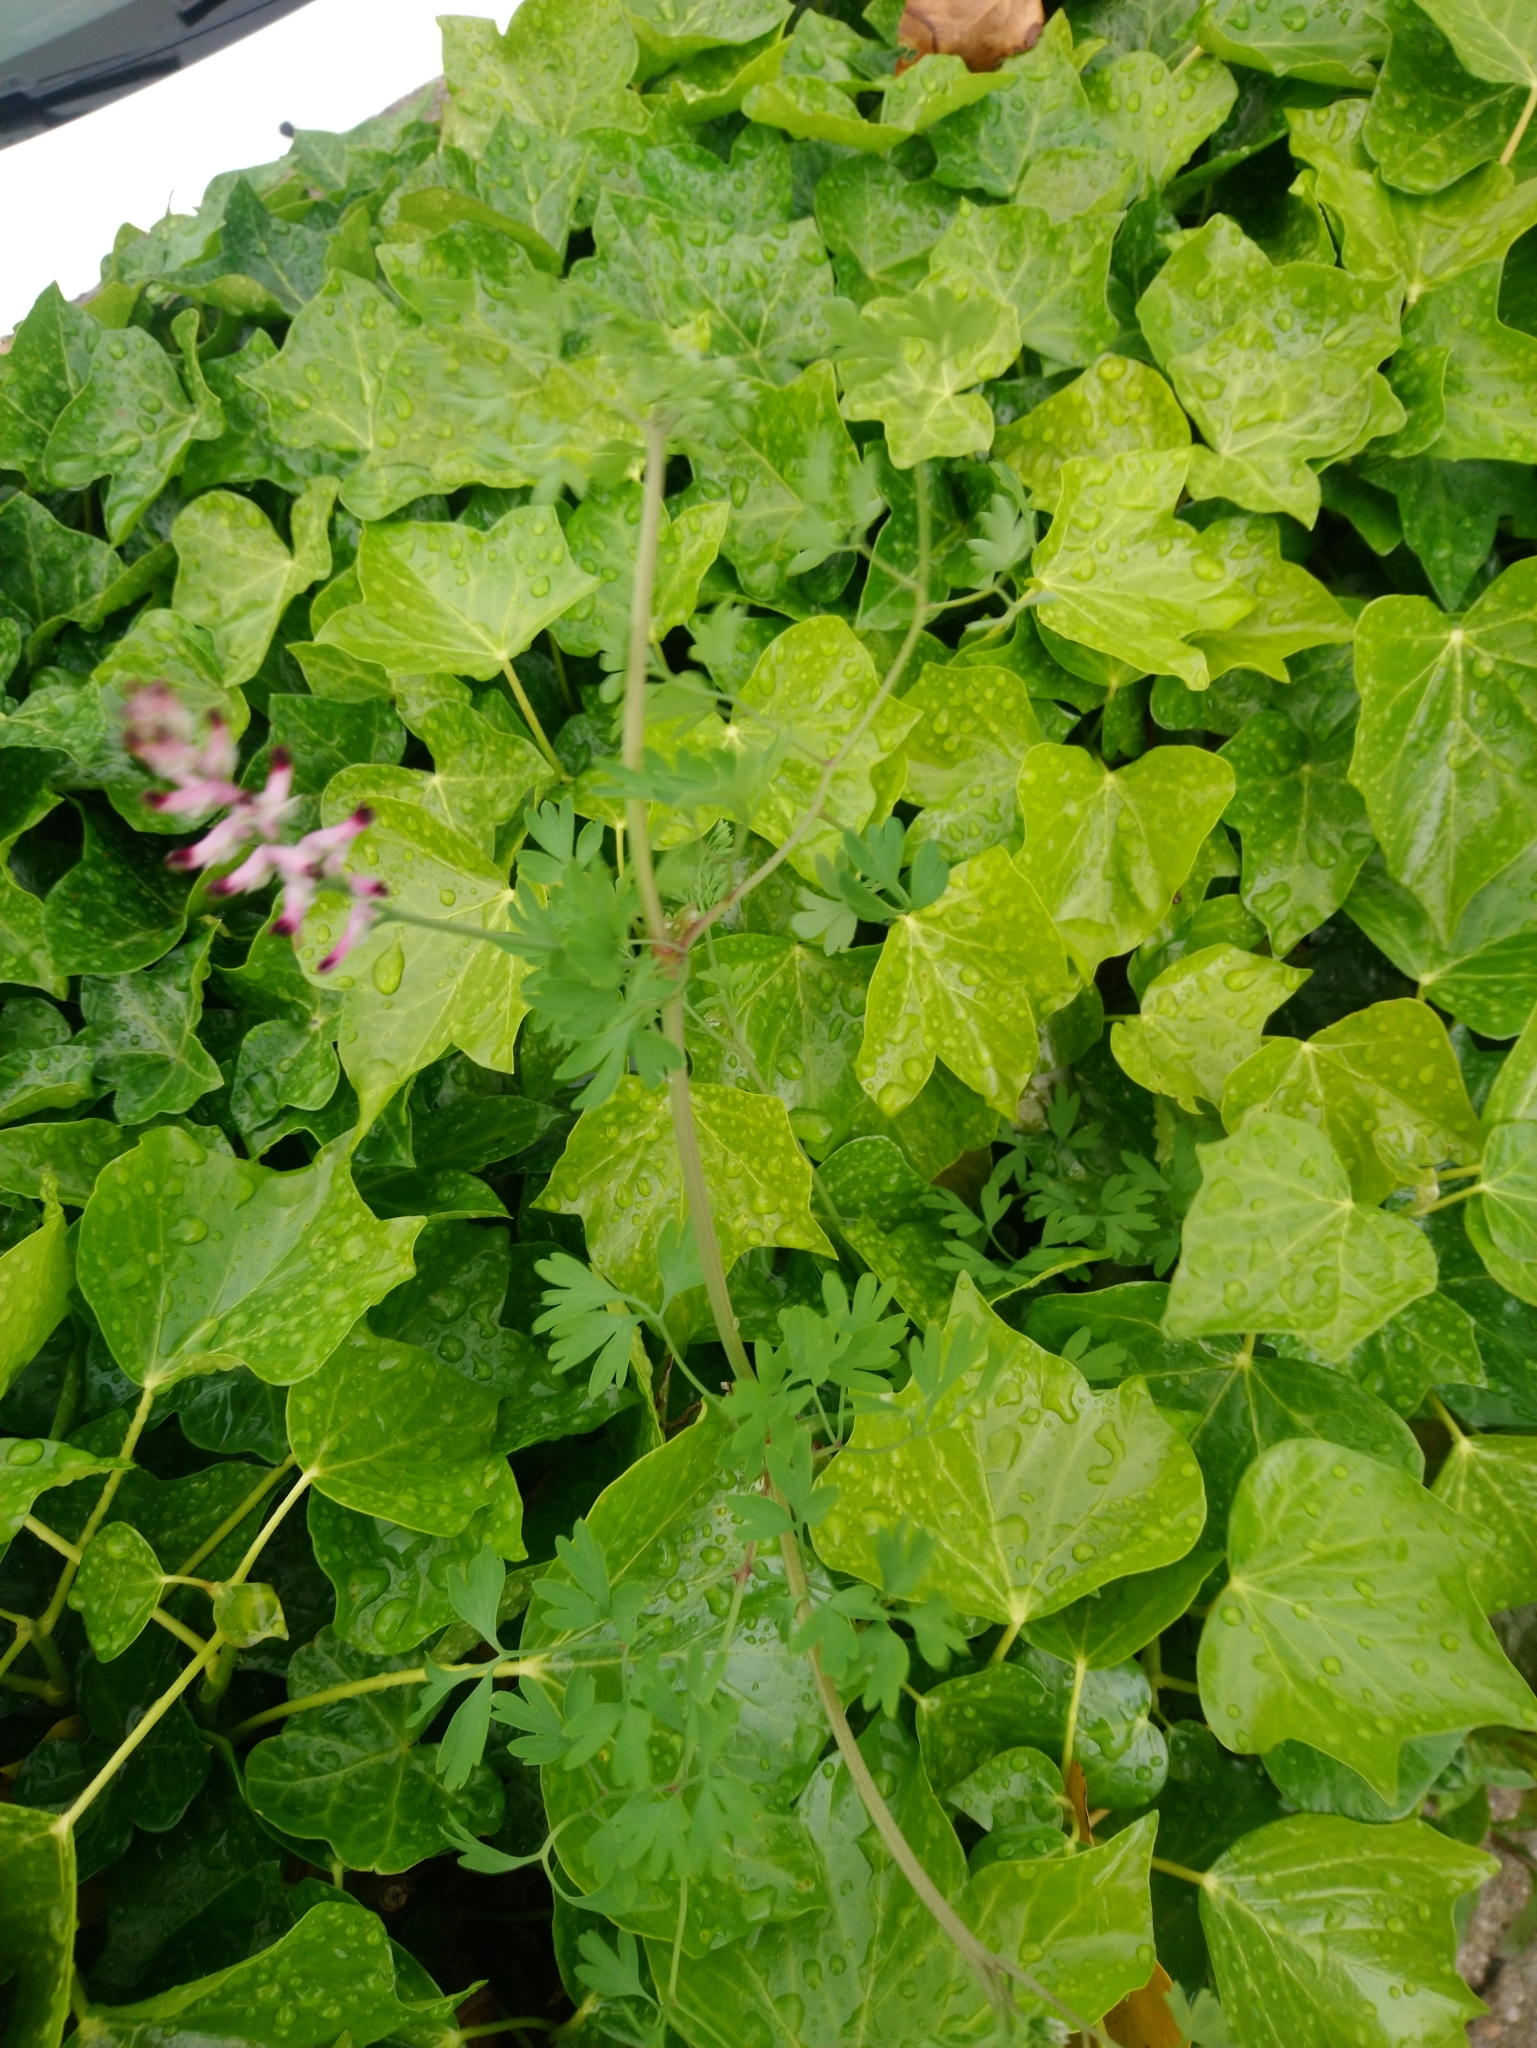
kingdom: Plantae
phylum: Tracheophyta
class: Magnoliopsida
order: Ranunculales
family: Papaveraceae
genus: Fumaria
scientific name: Fumaria muralis
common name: Common ramping-fumitory
